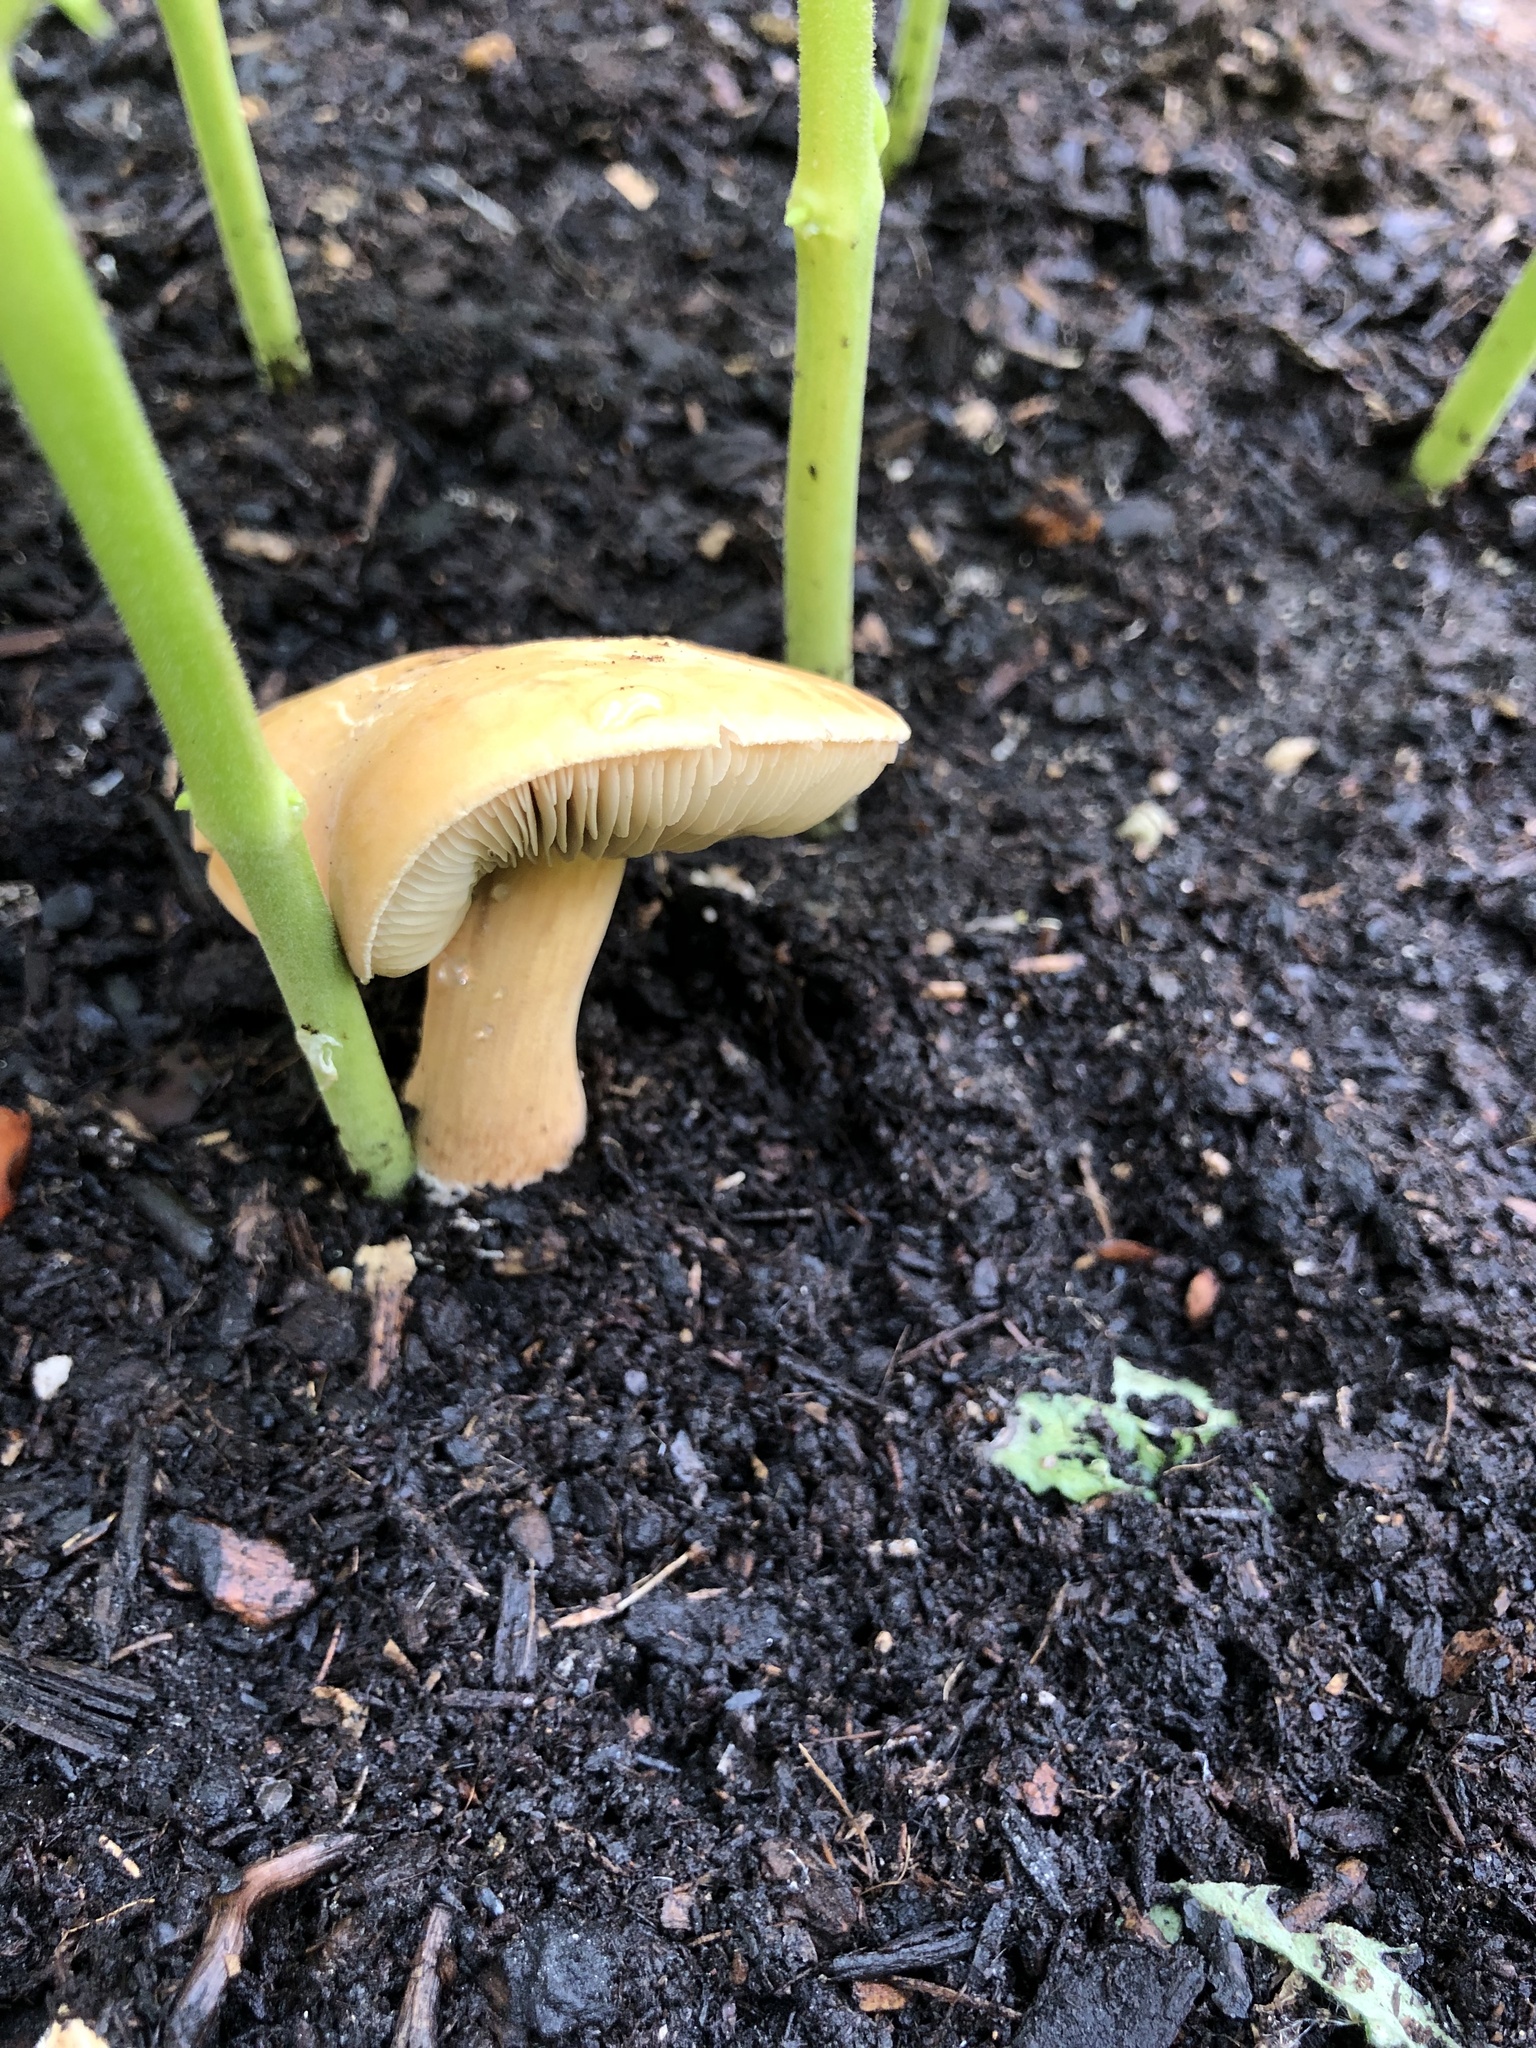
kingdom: Fungi
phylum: Basidiomycota
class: Agaricomycetes
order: Agaricales
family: Strophariaceae
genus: Agrocybe
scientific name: Agrocybe putaminum
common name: Mulch fieldcap
